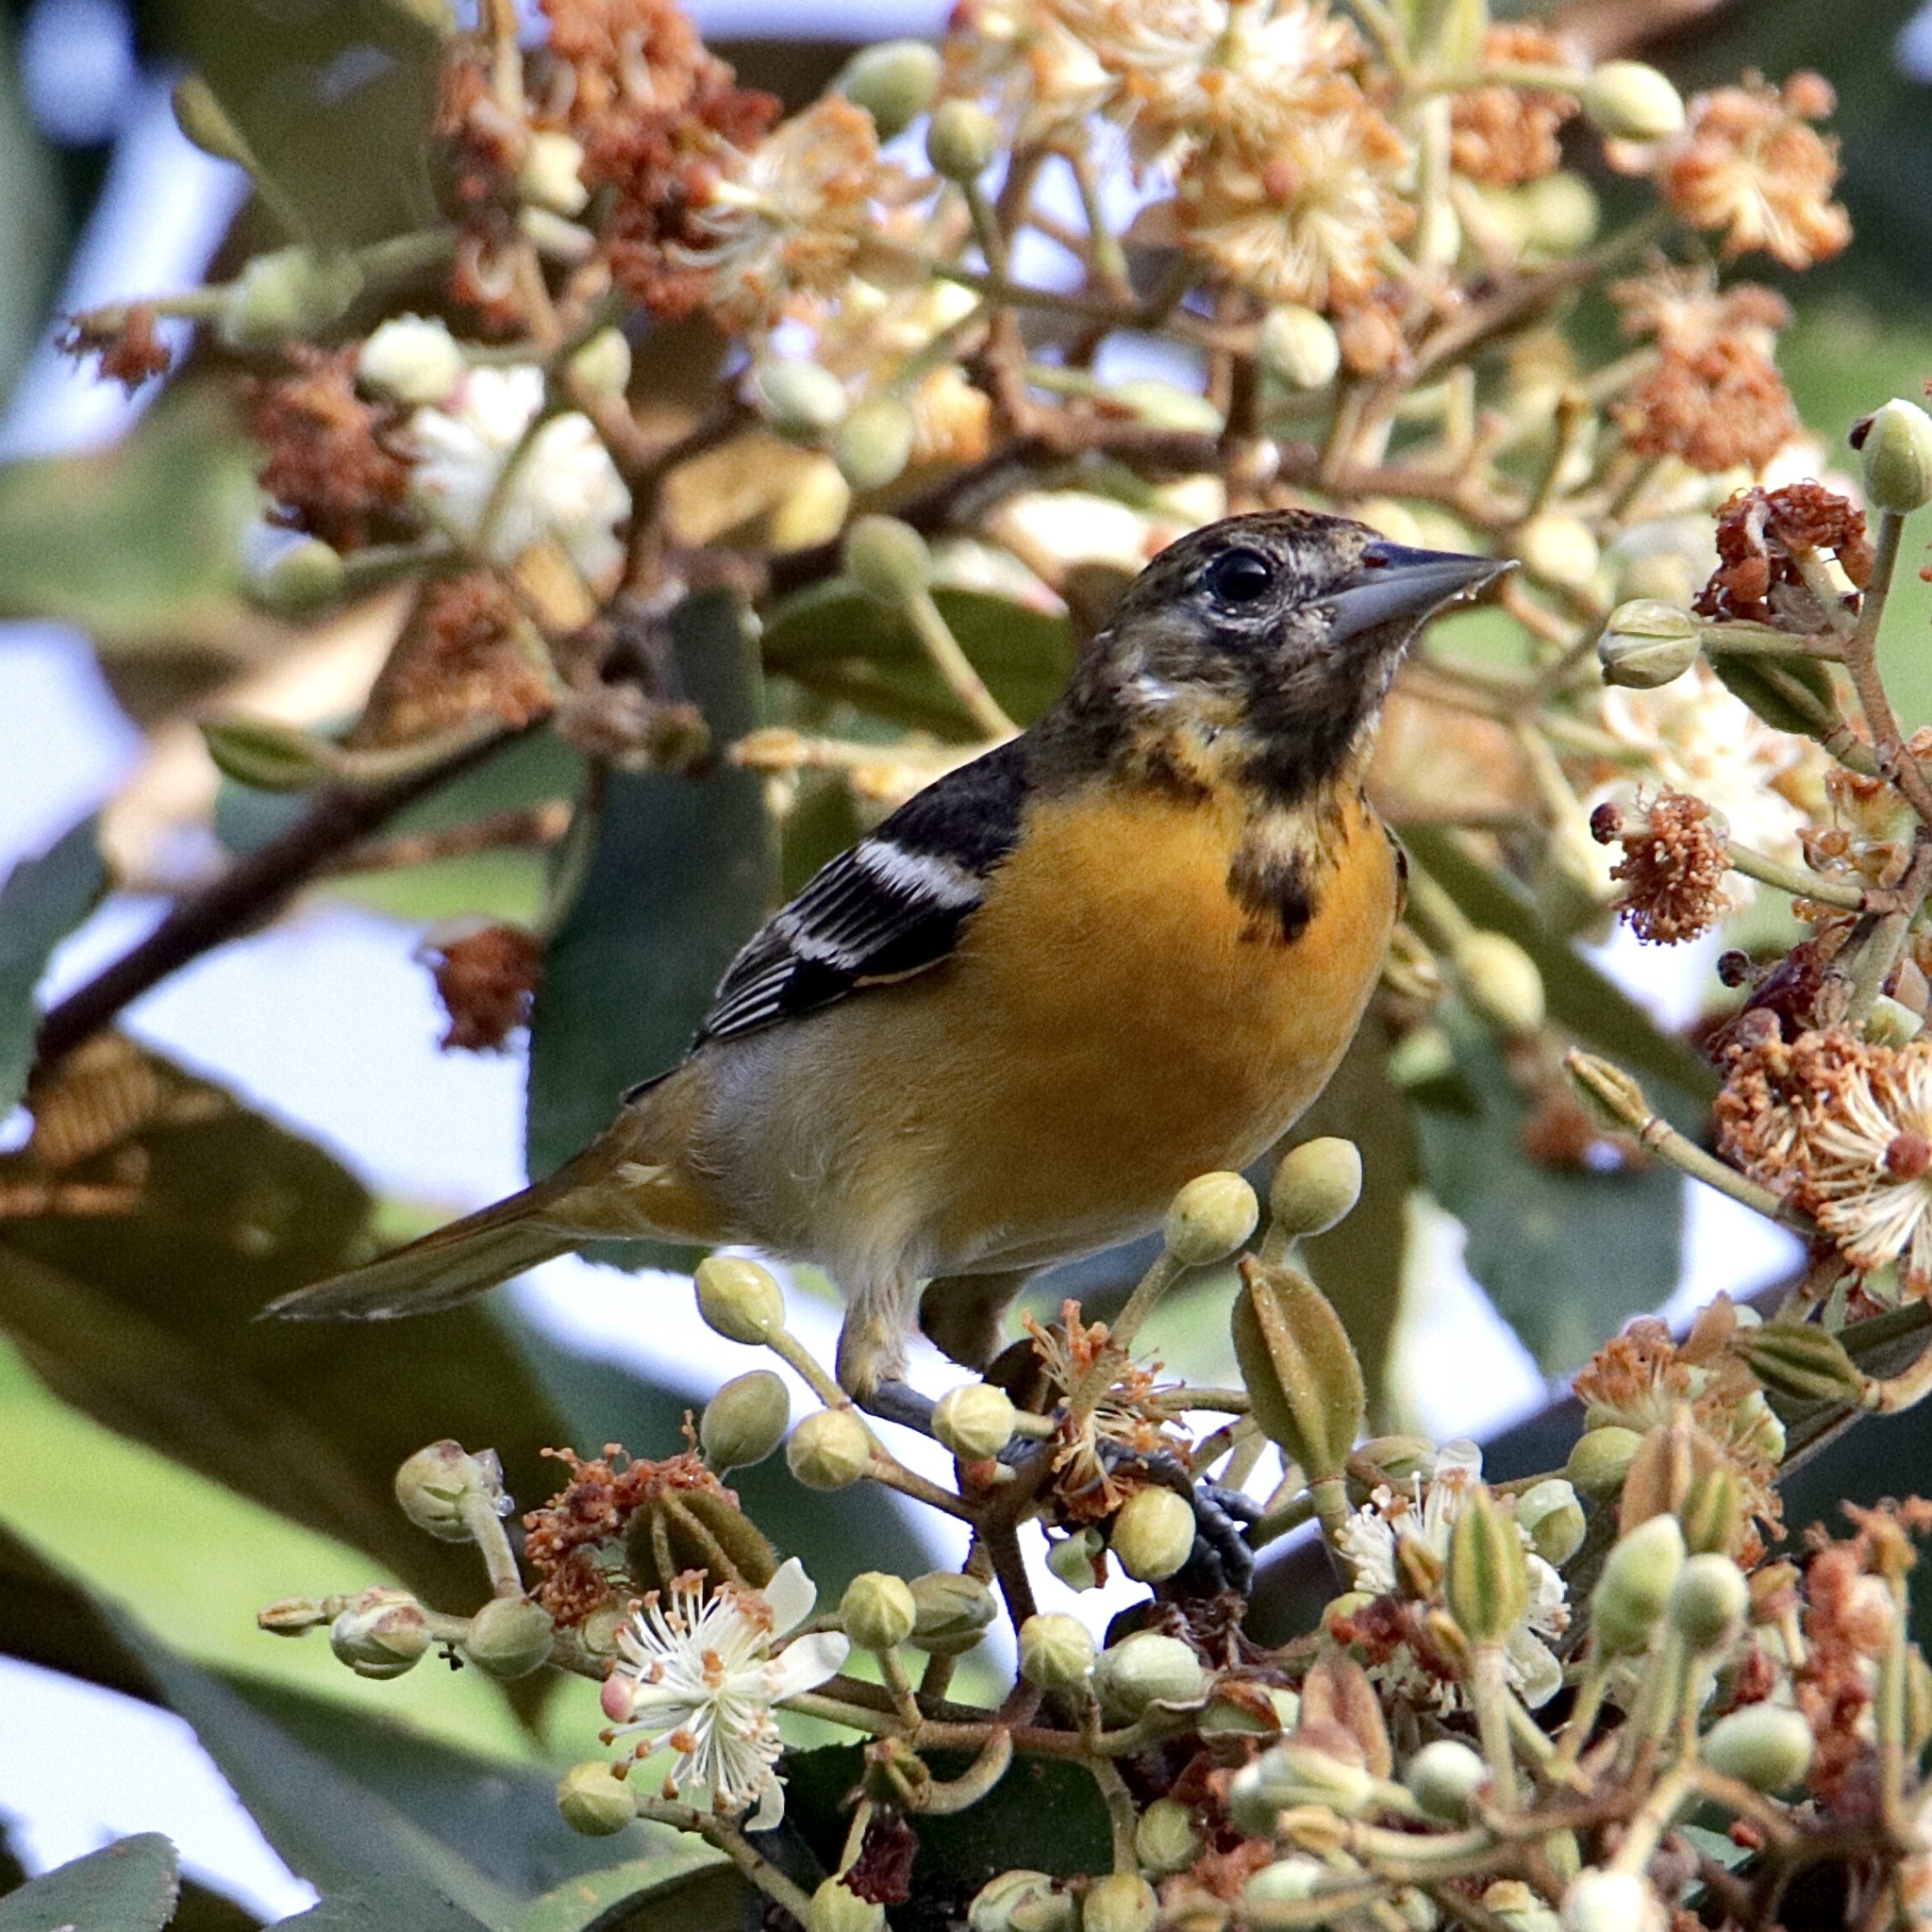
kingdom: Animalia
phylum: Chordata
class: Aves
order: Passeriformes
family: Icteridae
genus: Icterus
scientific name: Icterus galbula
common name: Baltimore oriole
